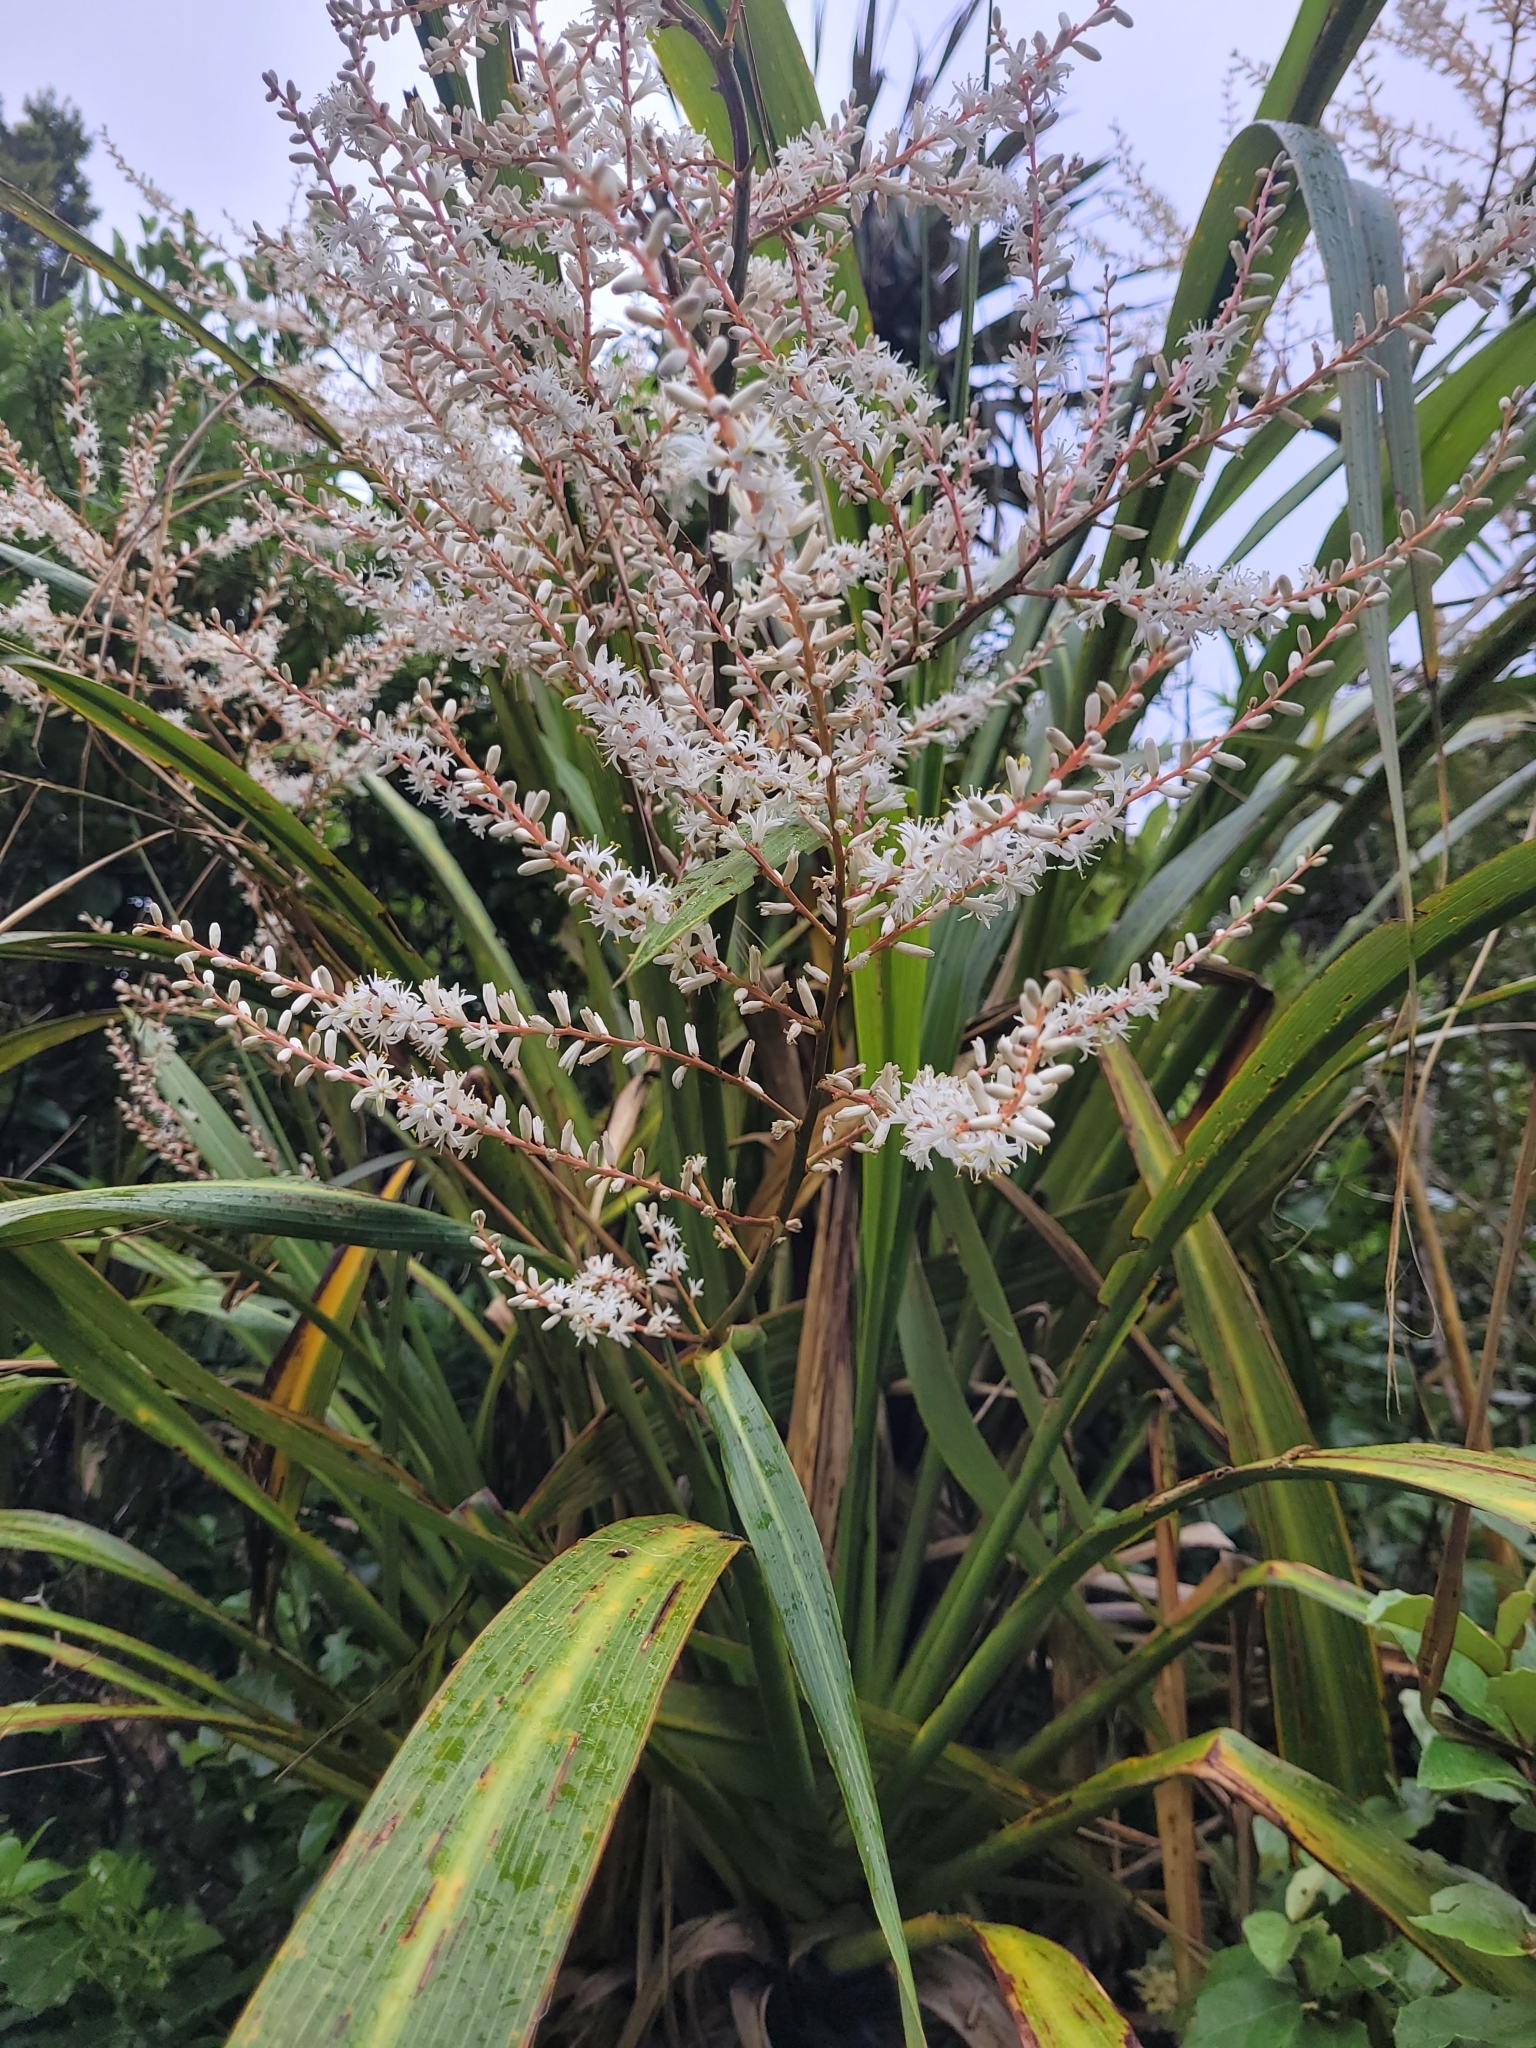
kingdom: Plantae
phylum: Tracheophyta
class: Liliopsida
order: Asparagales
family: Asparagaceae
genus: Cordyline
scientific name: Cordyline banksii
